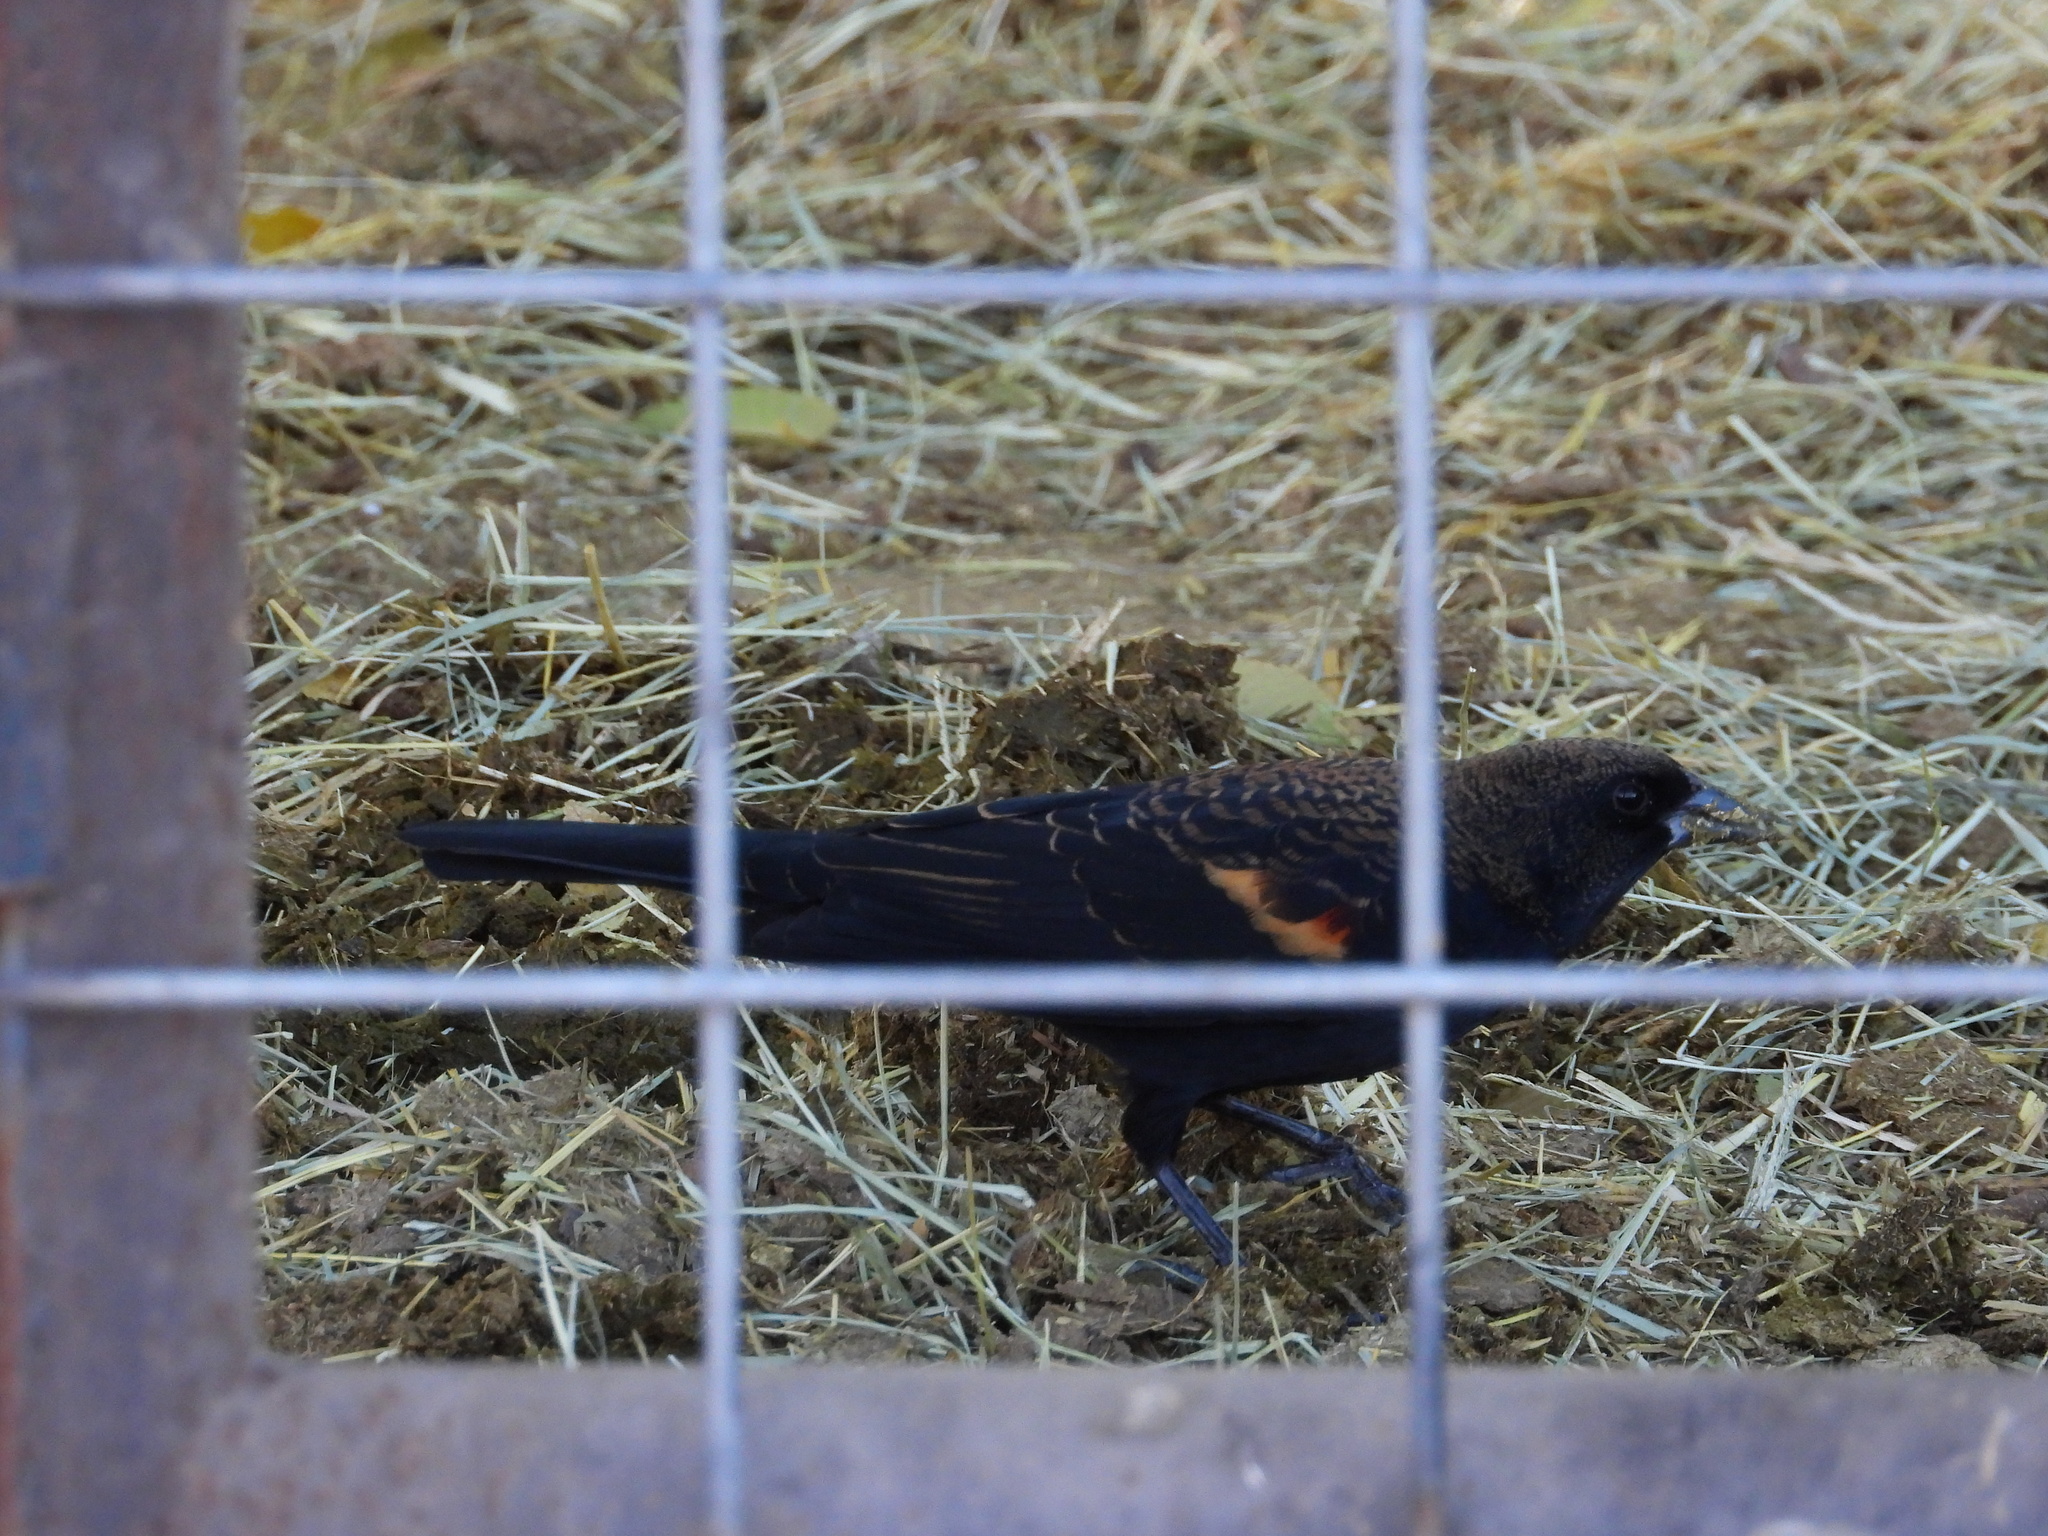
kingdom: Animalia
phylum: Chordata
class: Aves
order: Passeriformes
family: Icteridae
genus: Agelaius
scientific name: Agelaius phoeniceus
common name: Red-winged blackbird
